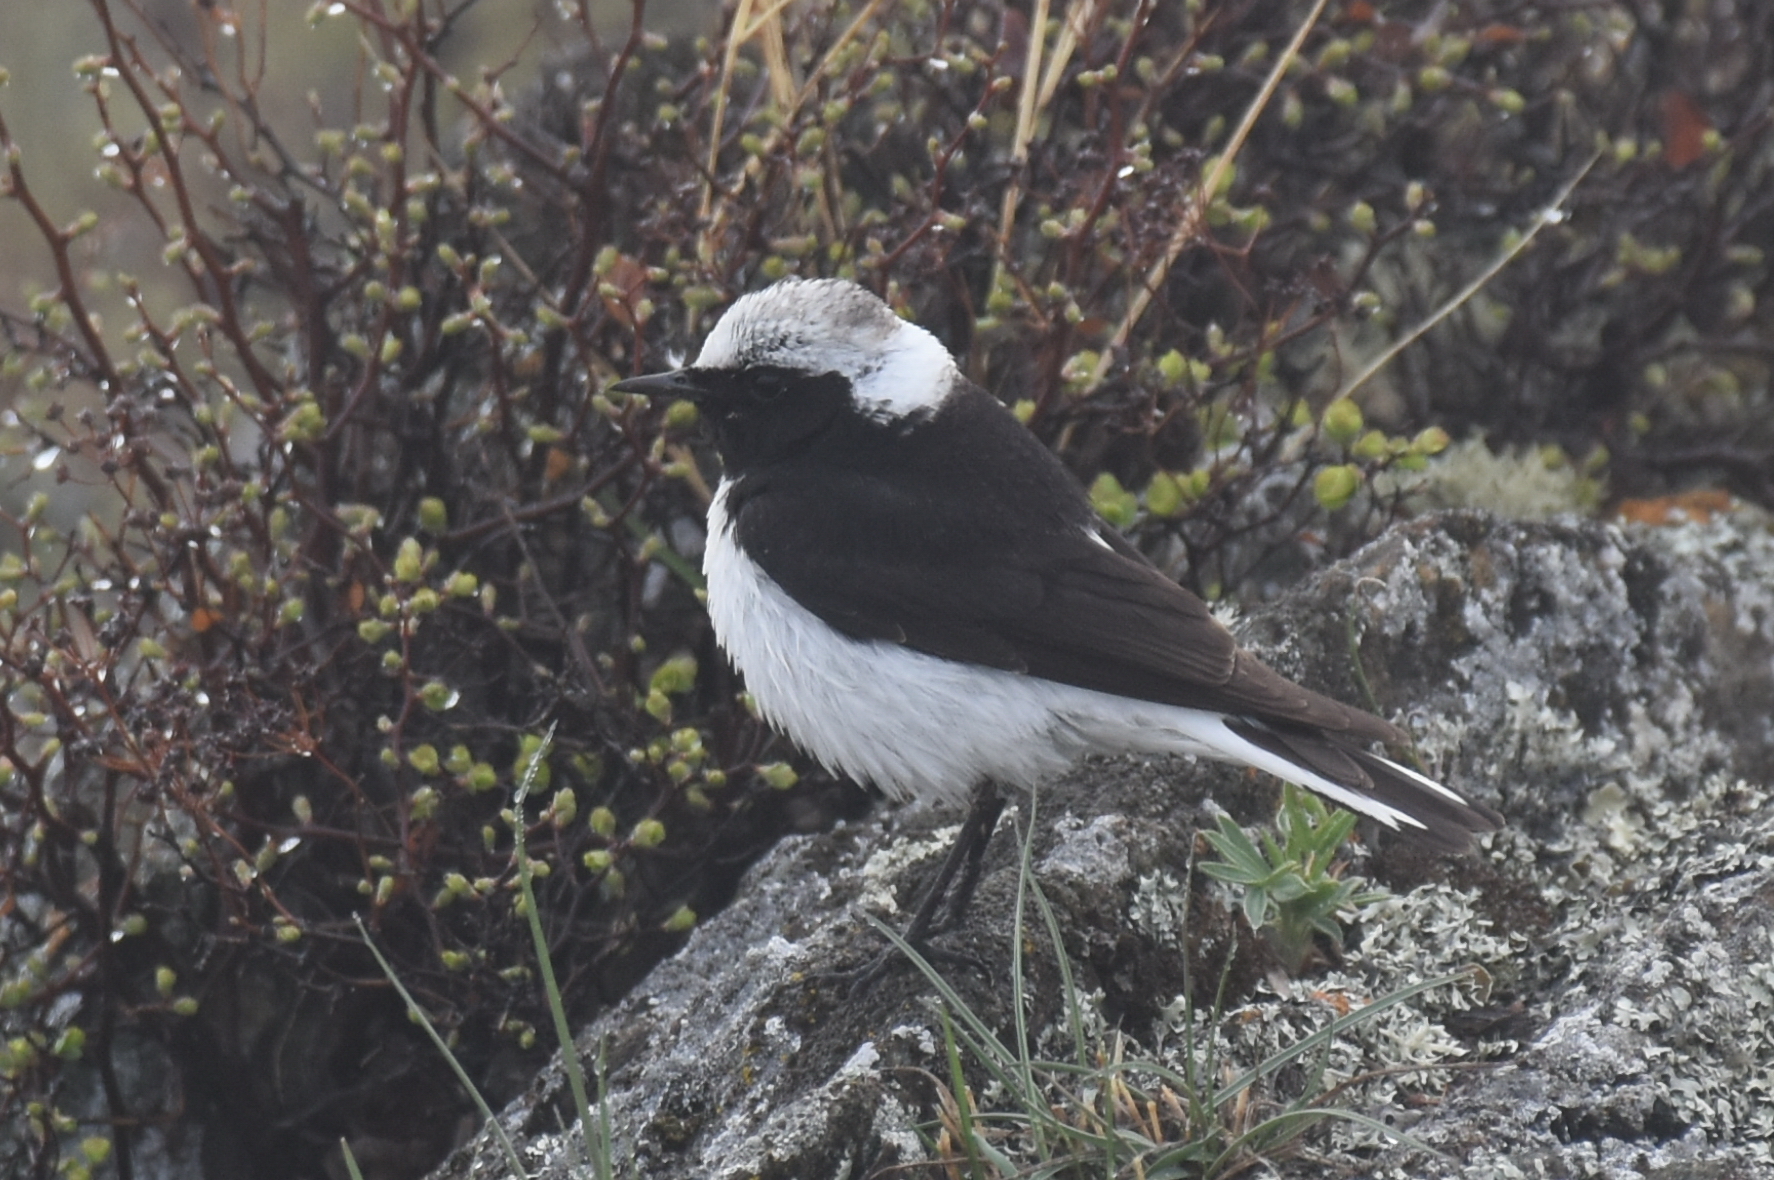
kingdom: Animalia
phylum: Chordata
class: Aves
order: Passeriformes
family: Muscicapidae
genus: Oenanthe
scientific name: Oenanthe pleschanka
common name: Pied wheatear
